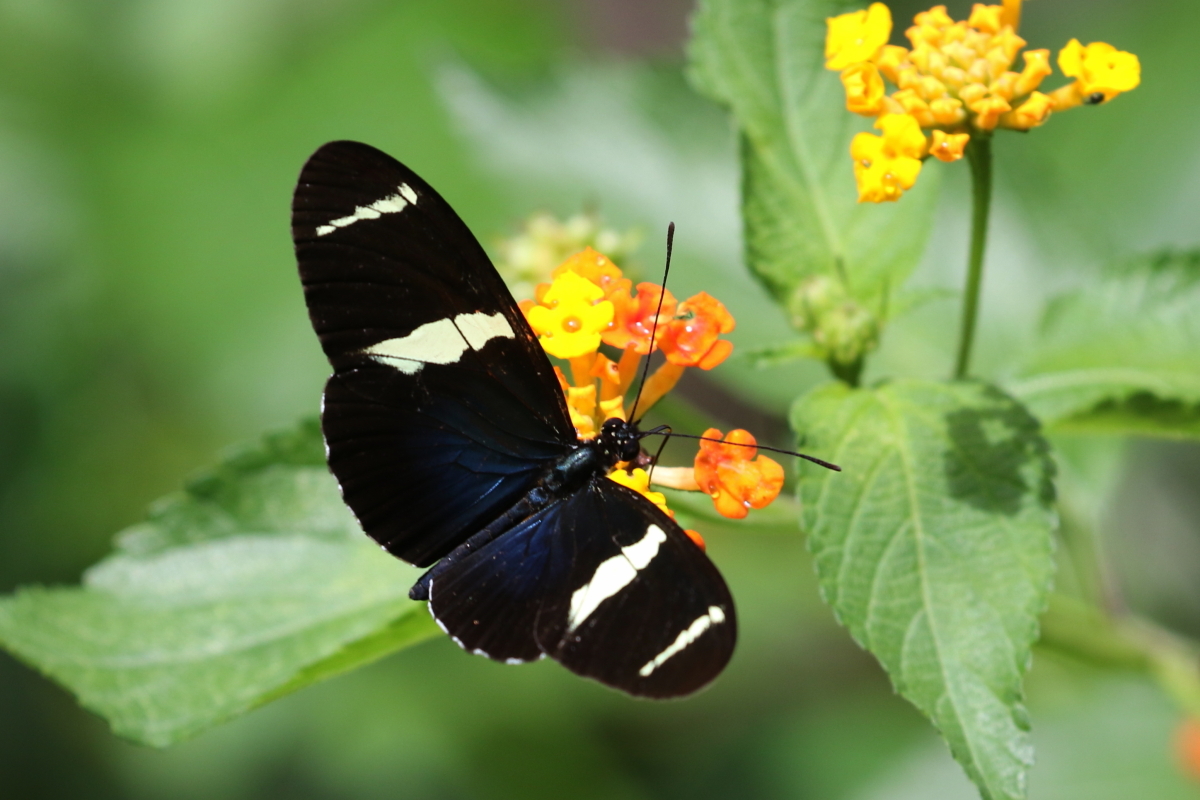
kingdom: Animalia
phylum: Arthropoda
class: Insecta
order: Lepidoptera
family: Nymphalidae
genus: Heliconius
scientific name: Heliconius sara
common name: Sara longwing
